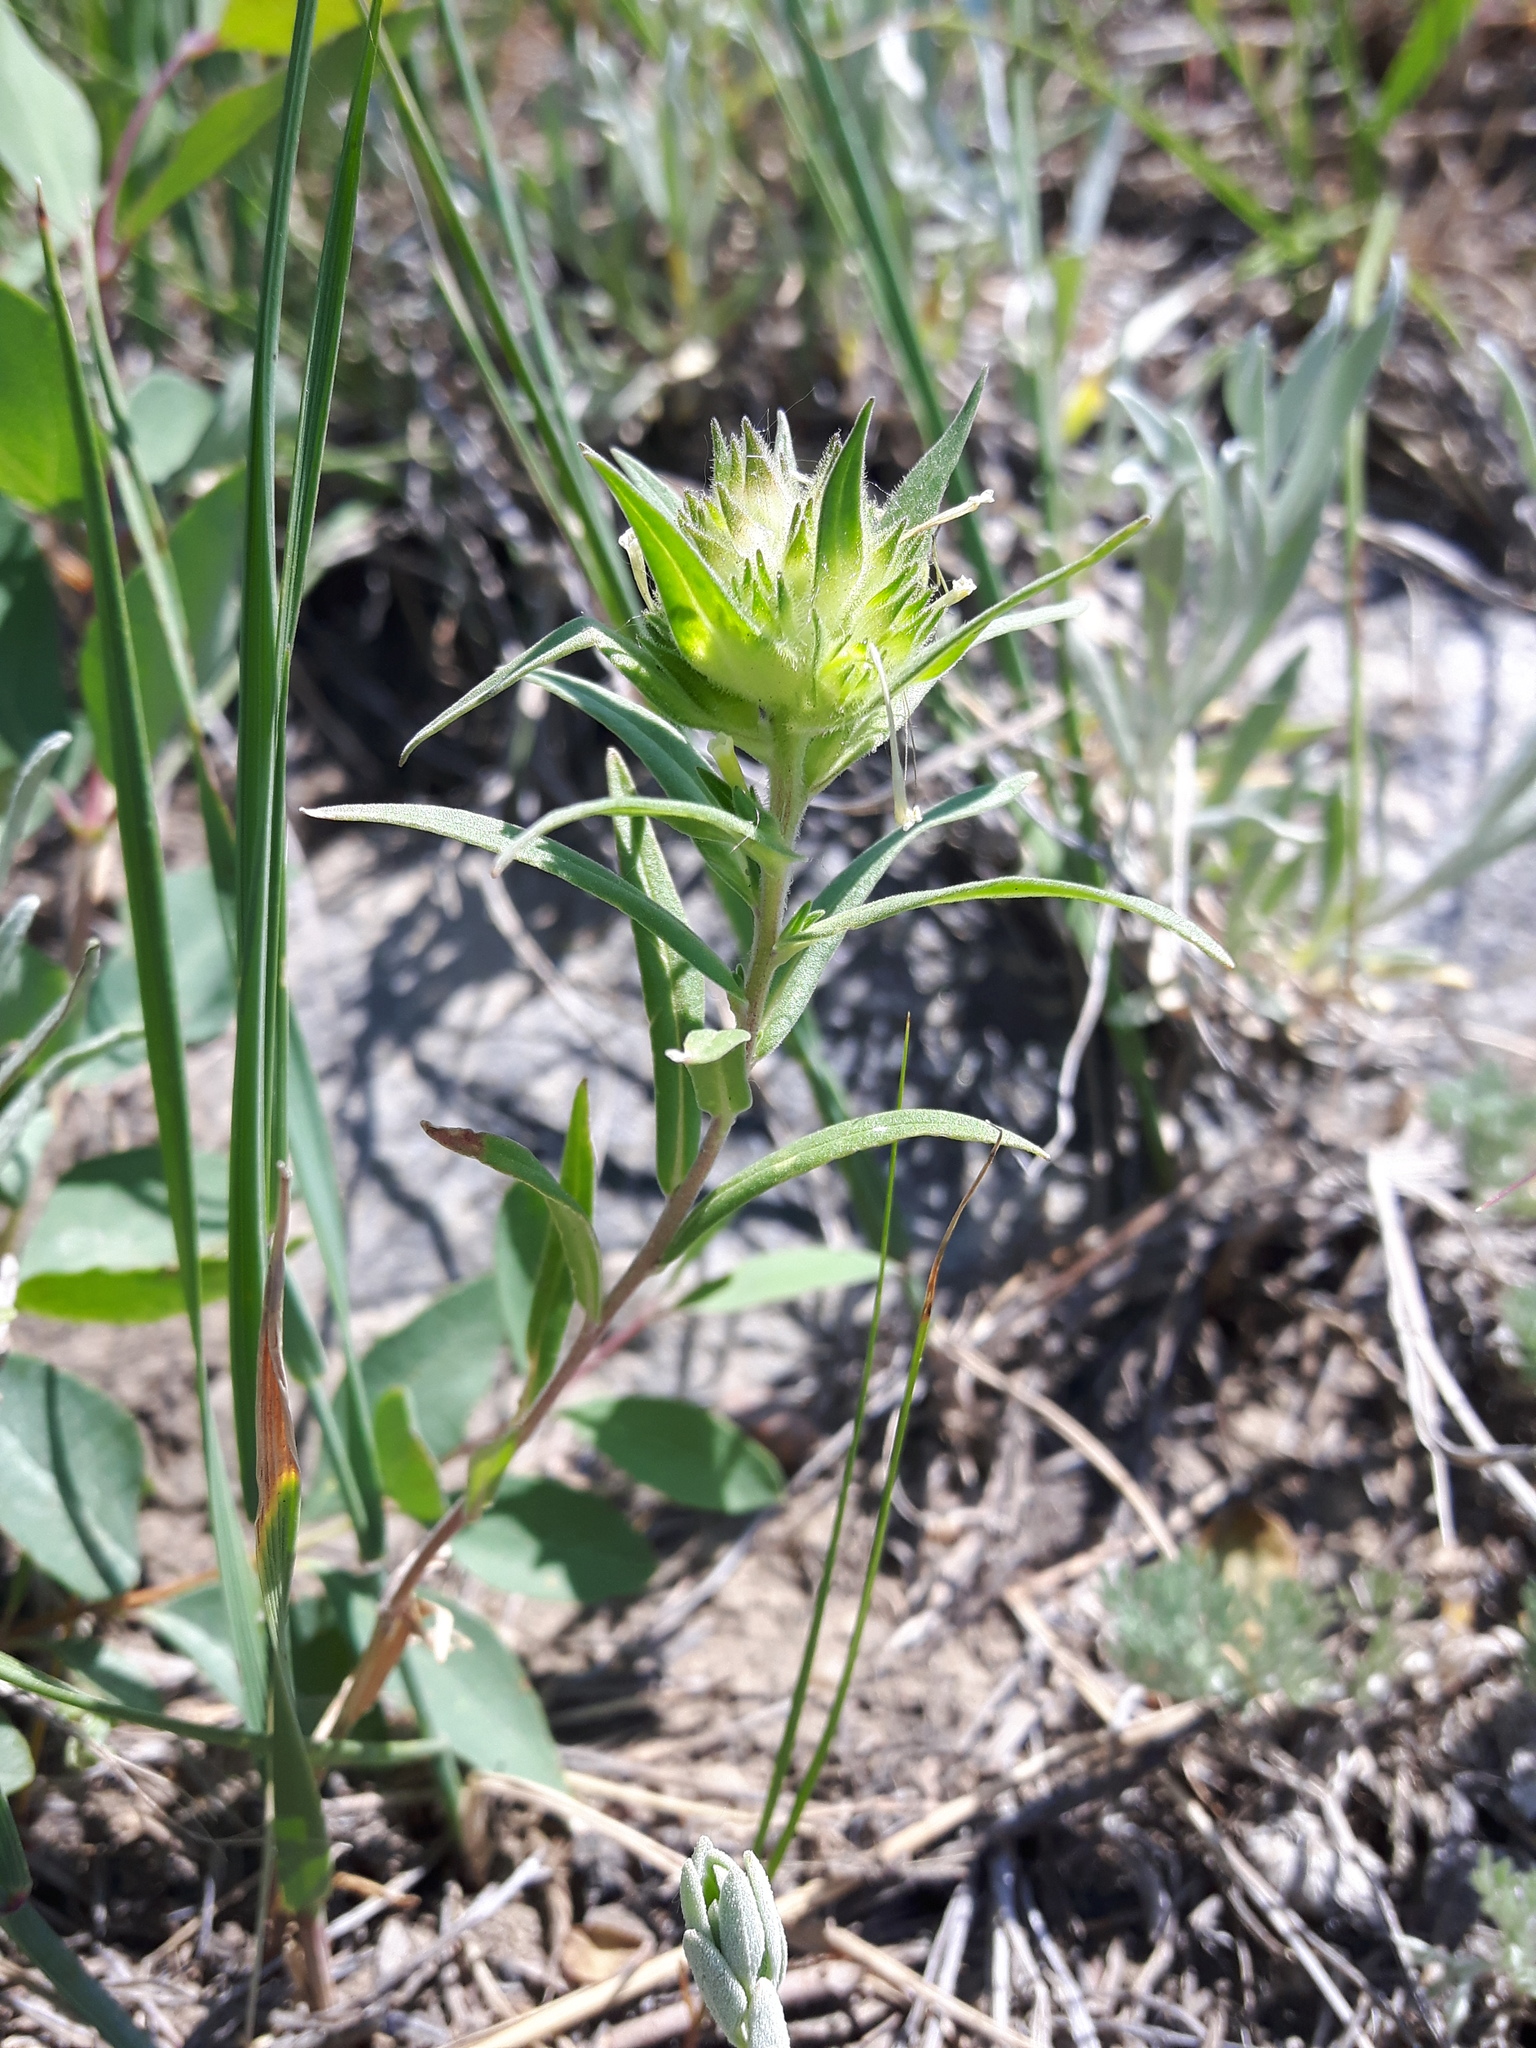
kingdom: Plantae
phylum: Tracheophyta
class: Magnoliopsida
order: Ericales
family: Polemoniaceae
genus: Collomia
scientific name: Collomia linearis
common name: Tiny trumpet
